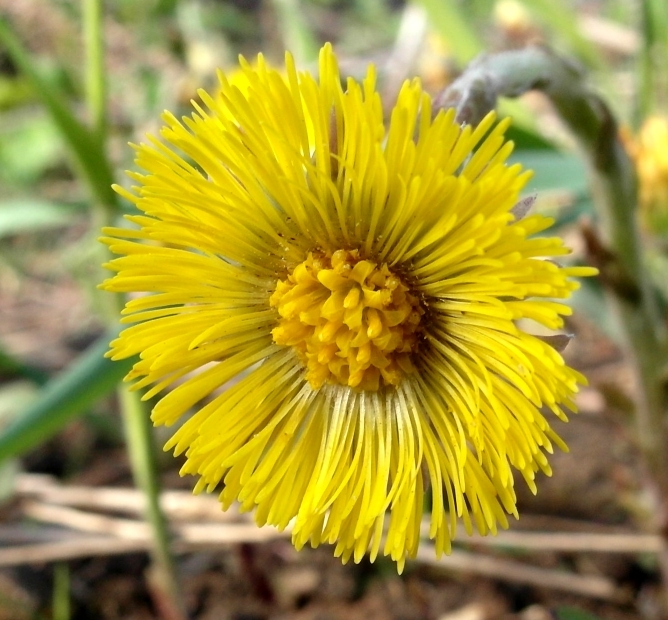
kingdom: Plantae
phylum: Tracheophyta
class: Magnoliopsida
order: Asterales
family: Asteraceae
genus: Tussilago
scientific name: Tussilago farfara
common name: Coltsfoot
